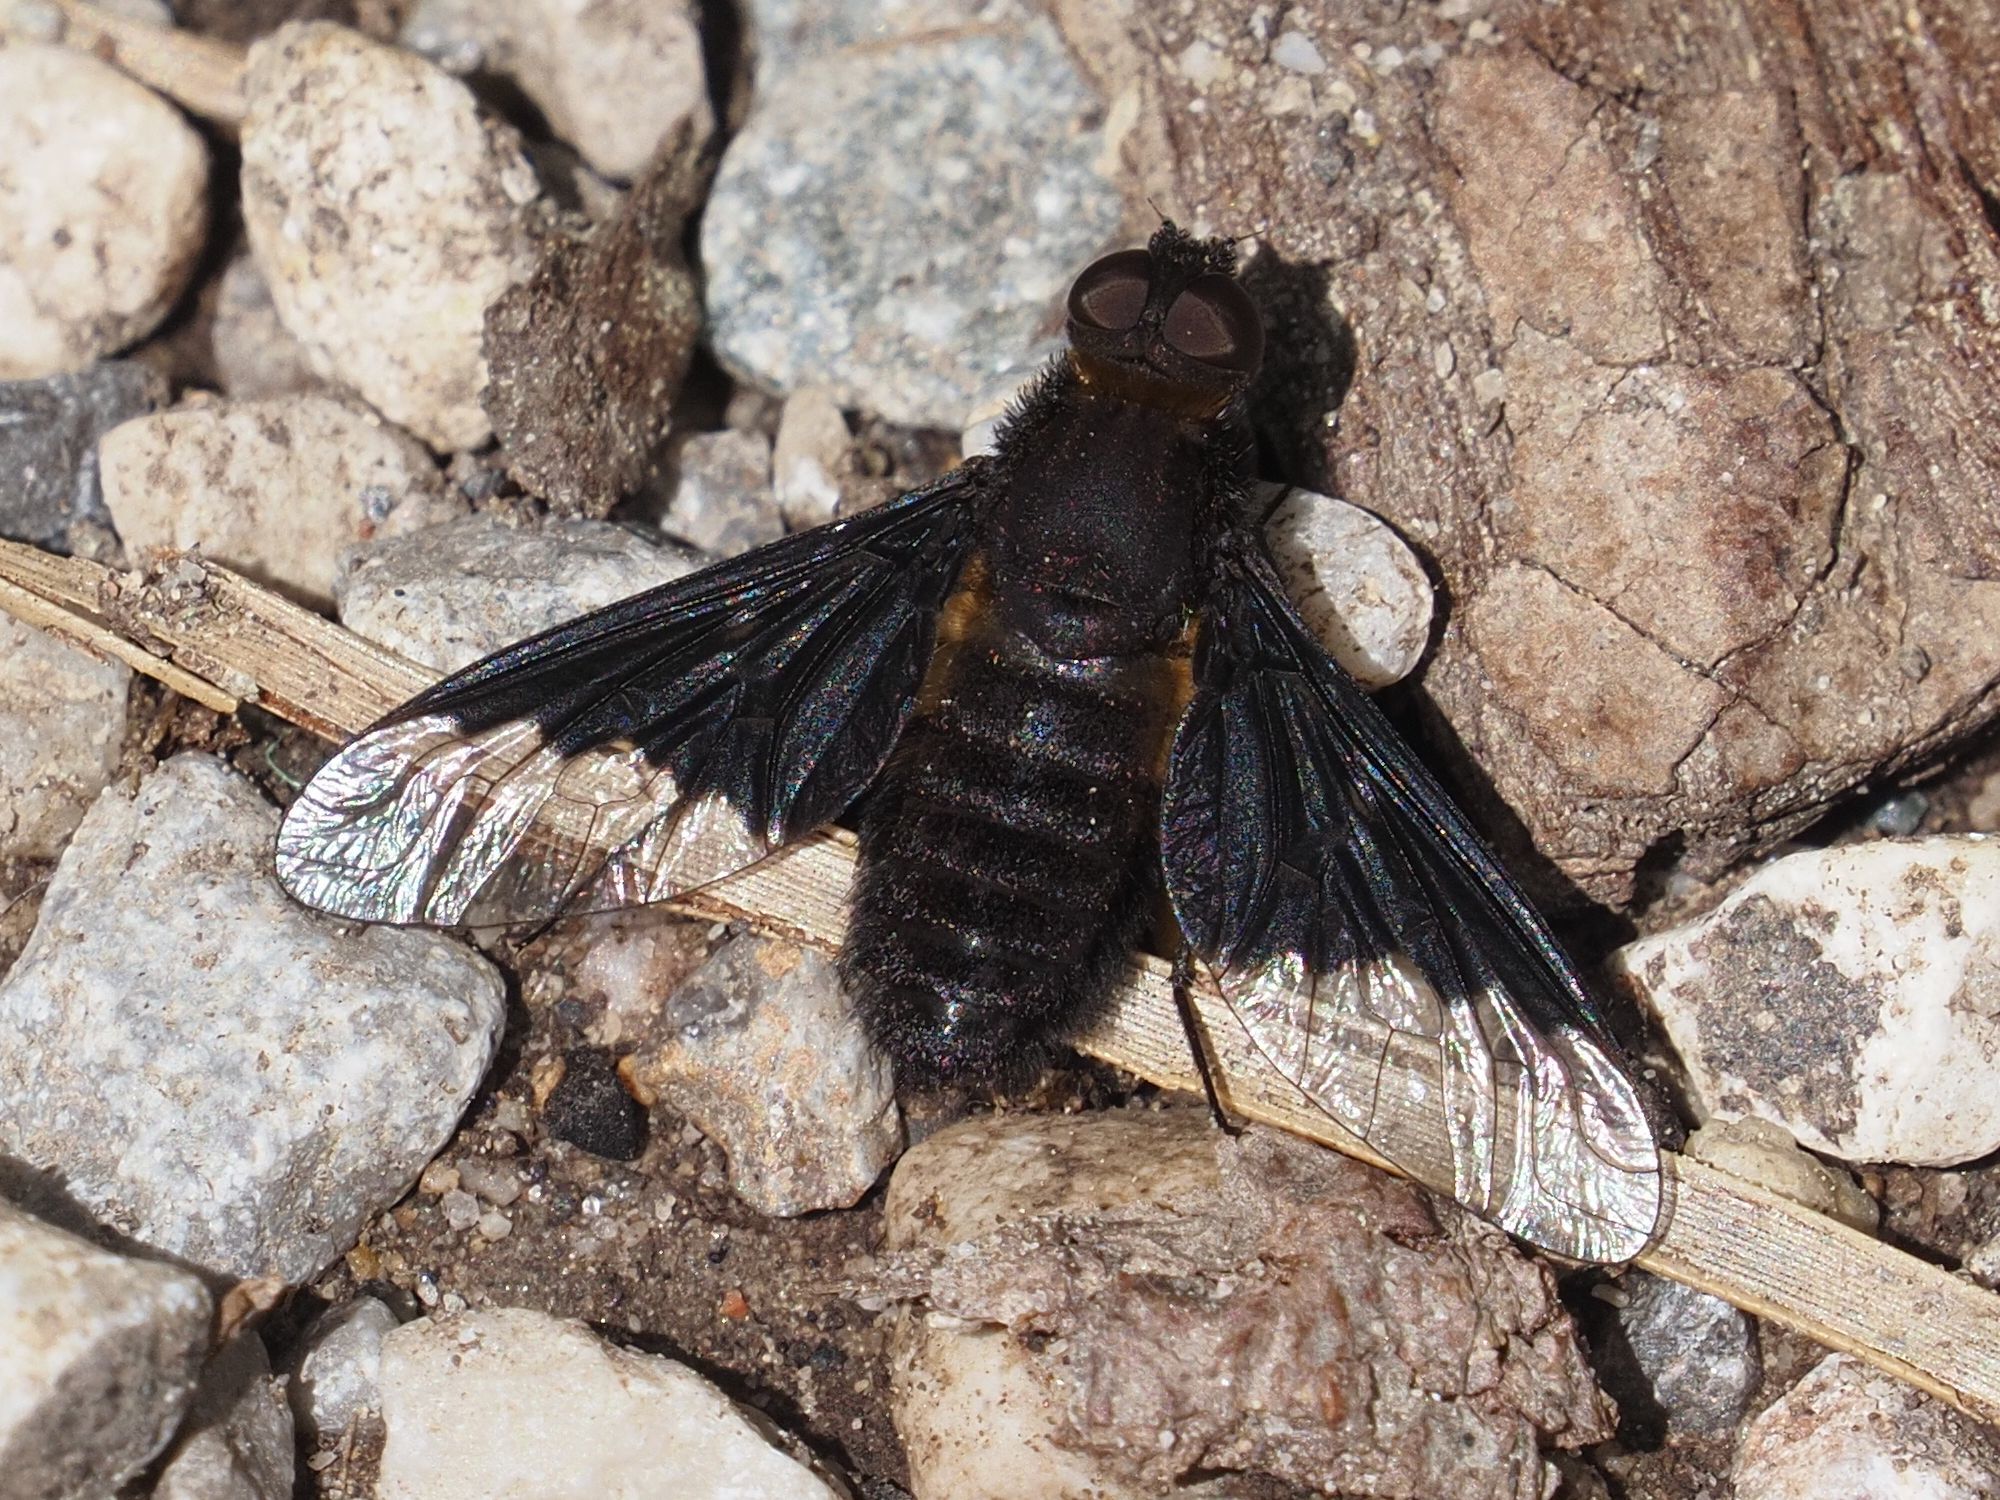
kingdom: Animalia
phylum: Arthropoda
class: Insecta
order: Diptera
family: Bombyliidae
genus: Hemipenthes
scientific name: Hemipenthes morio
